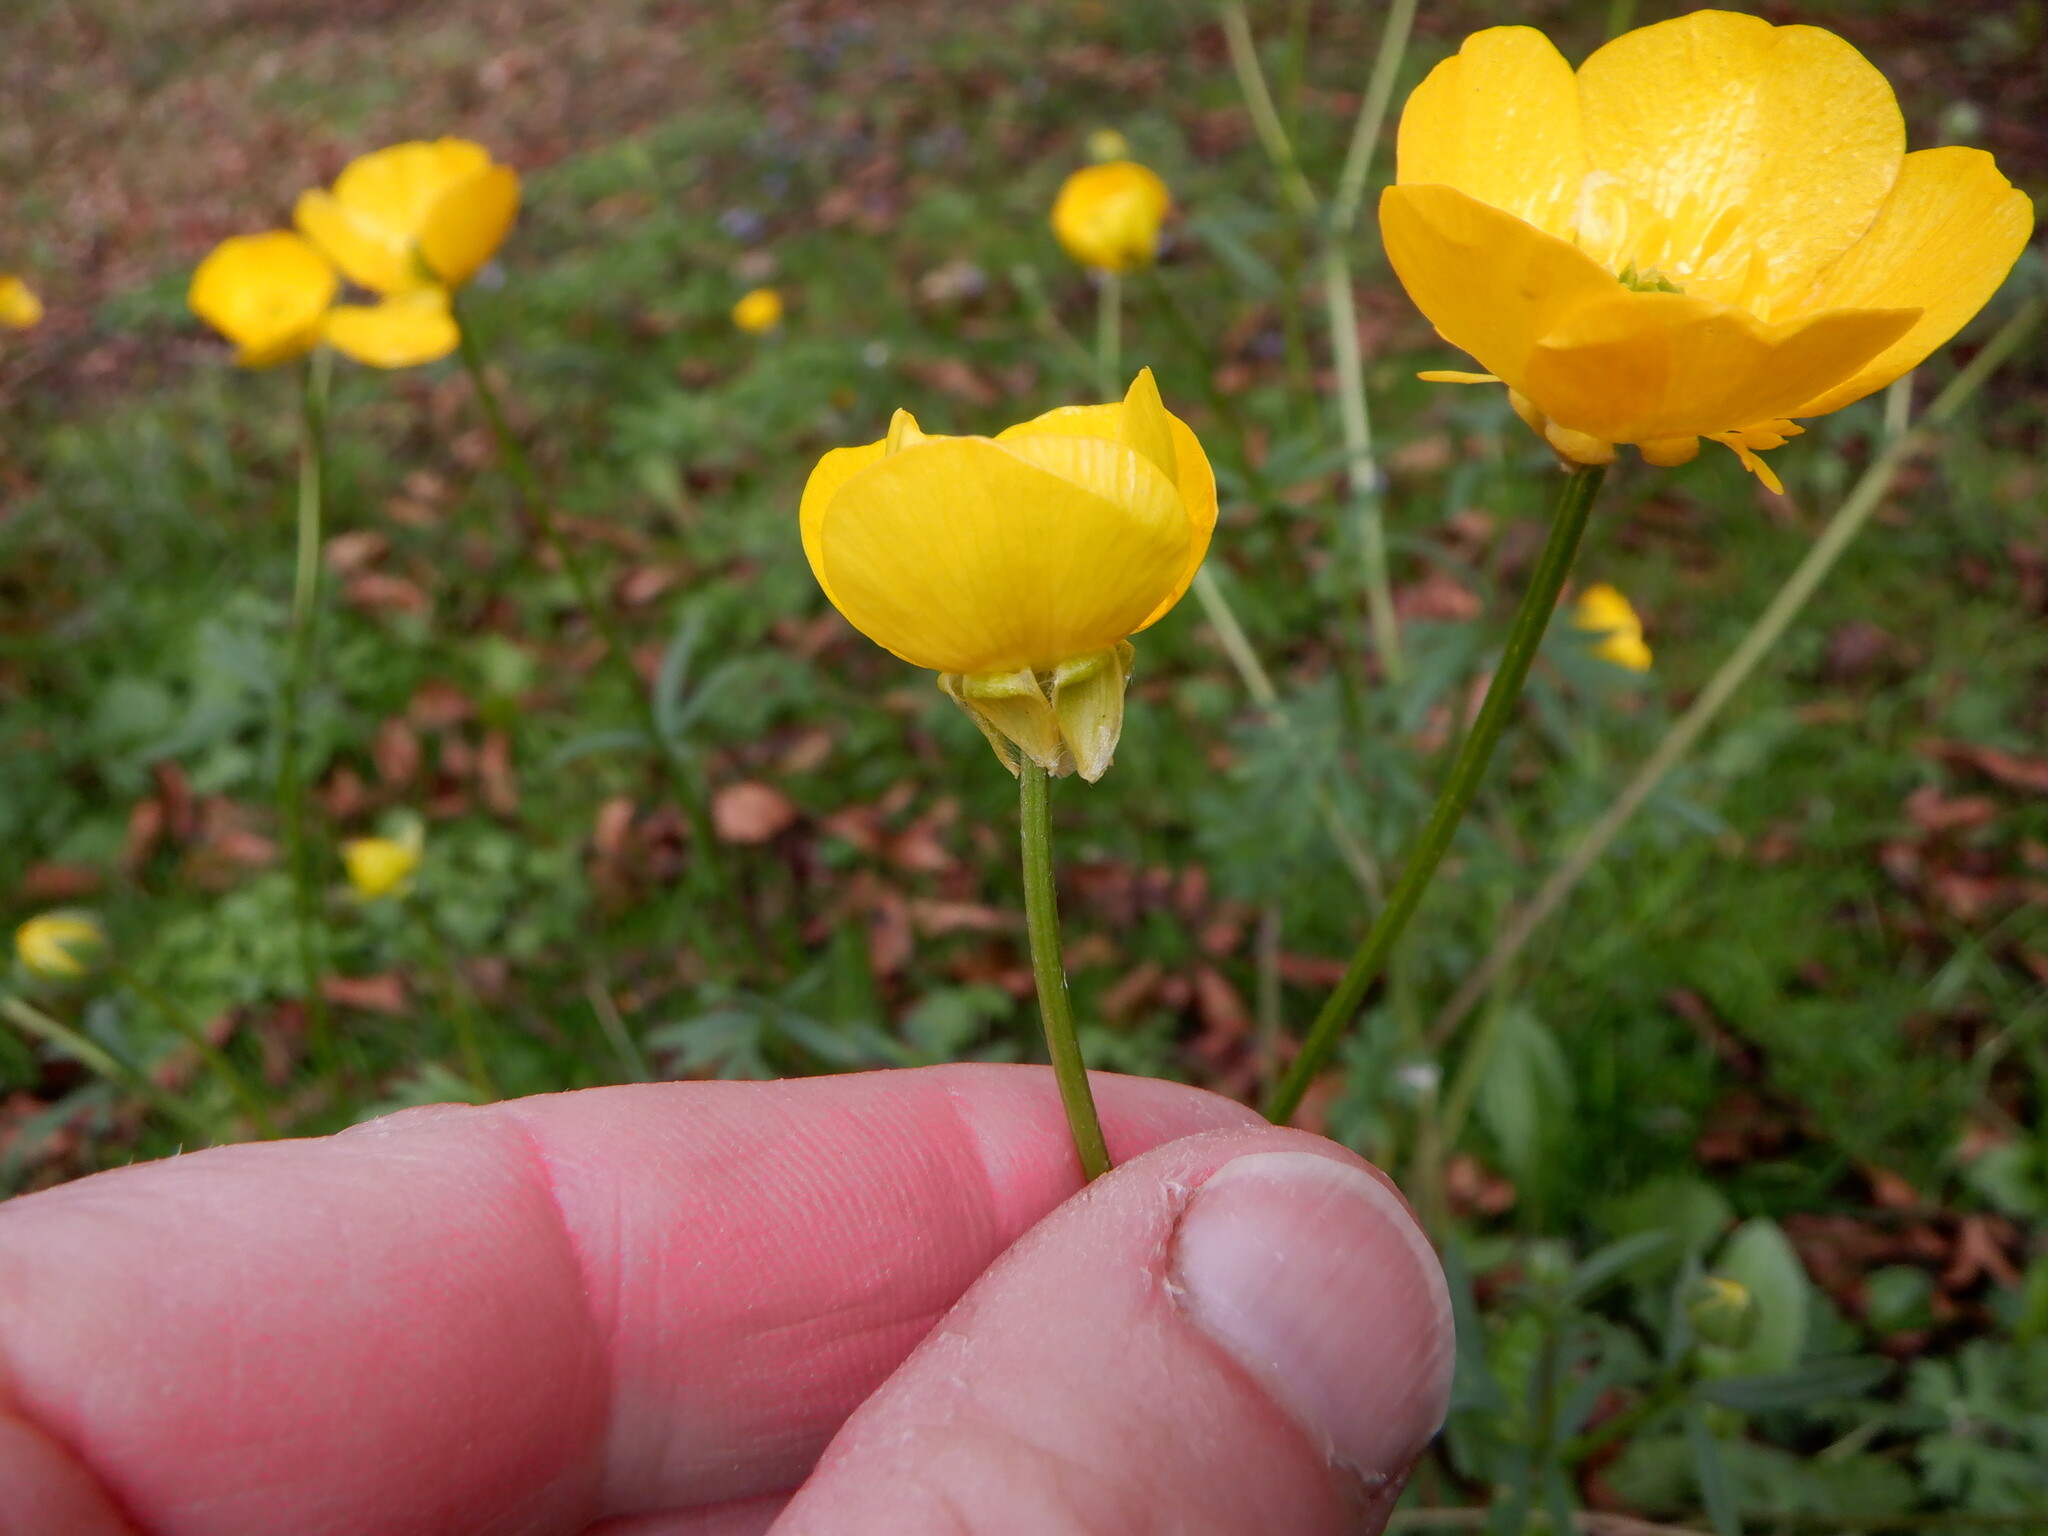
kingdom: Plantae
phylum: Tracheophyta
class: Magnoliopsida
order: Ranunculales
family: Ranunculaceae
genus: Ranunculus
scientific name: Ranunculus bulbosus
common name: Bulbous buttercup
